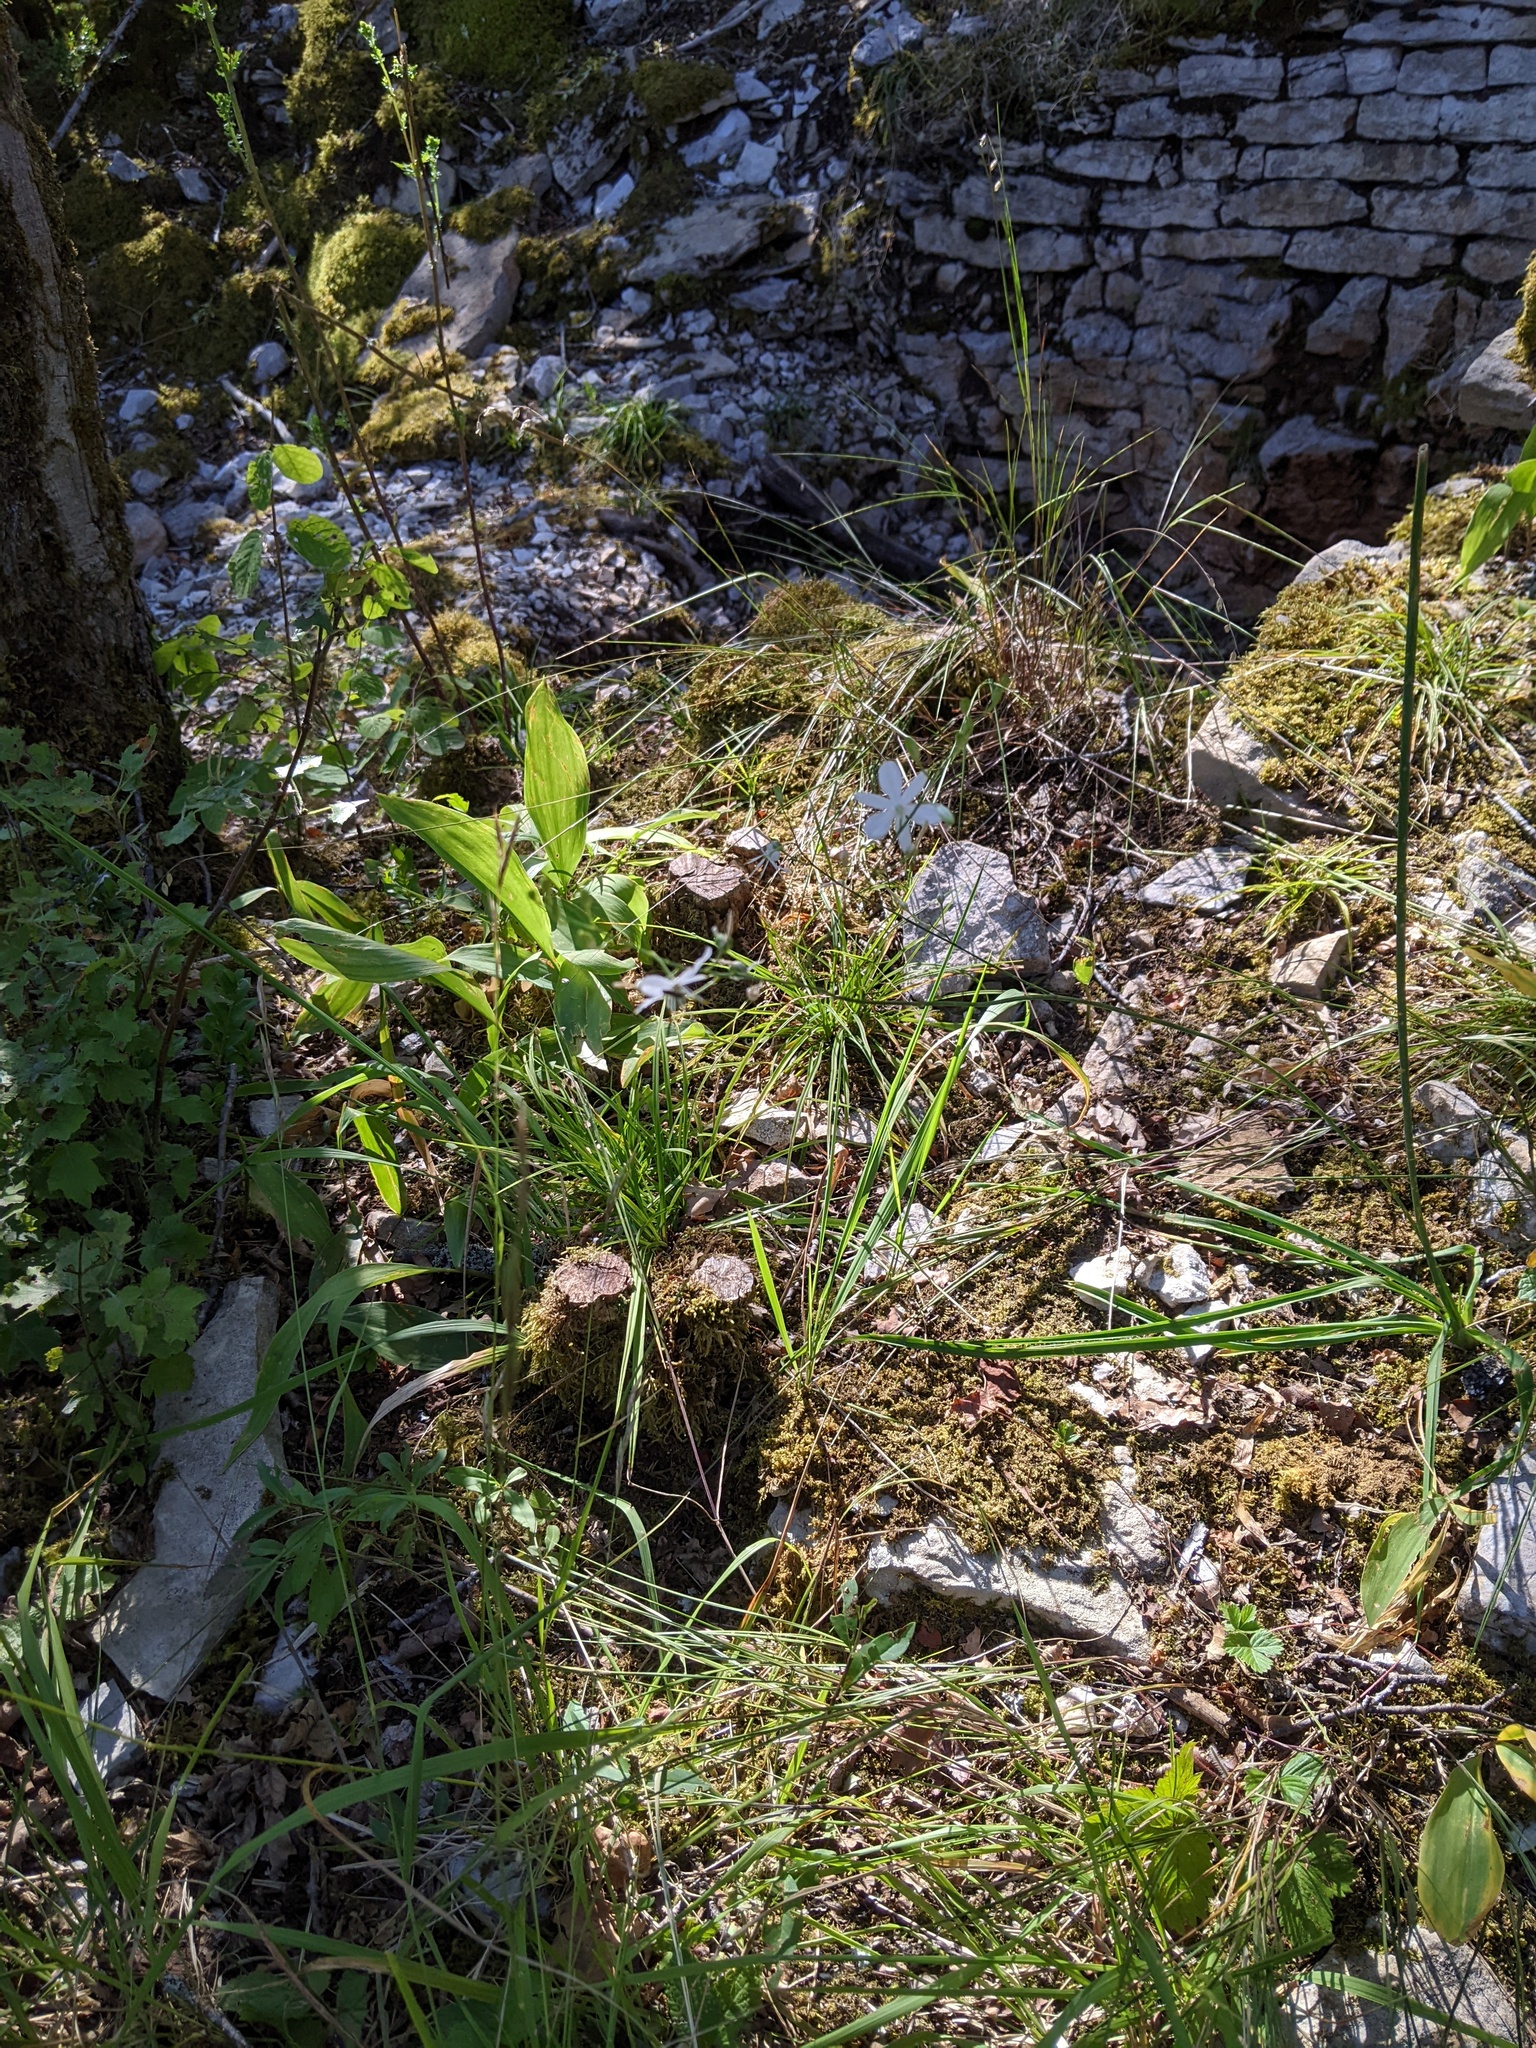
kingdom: Plantae
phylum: Tracheophyta
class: Liliopsida
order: Asparagales
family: Asparagaceae
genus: Anthericum
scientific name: Anthericum ramosum
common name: Branched st. bernard's-lily
